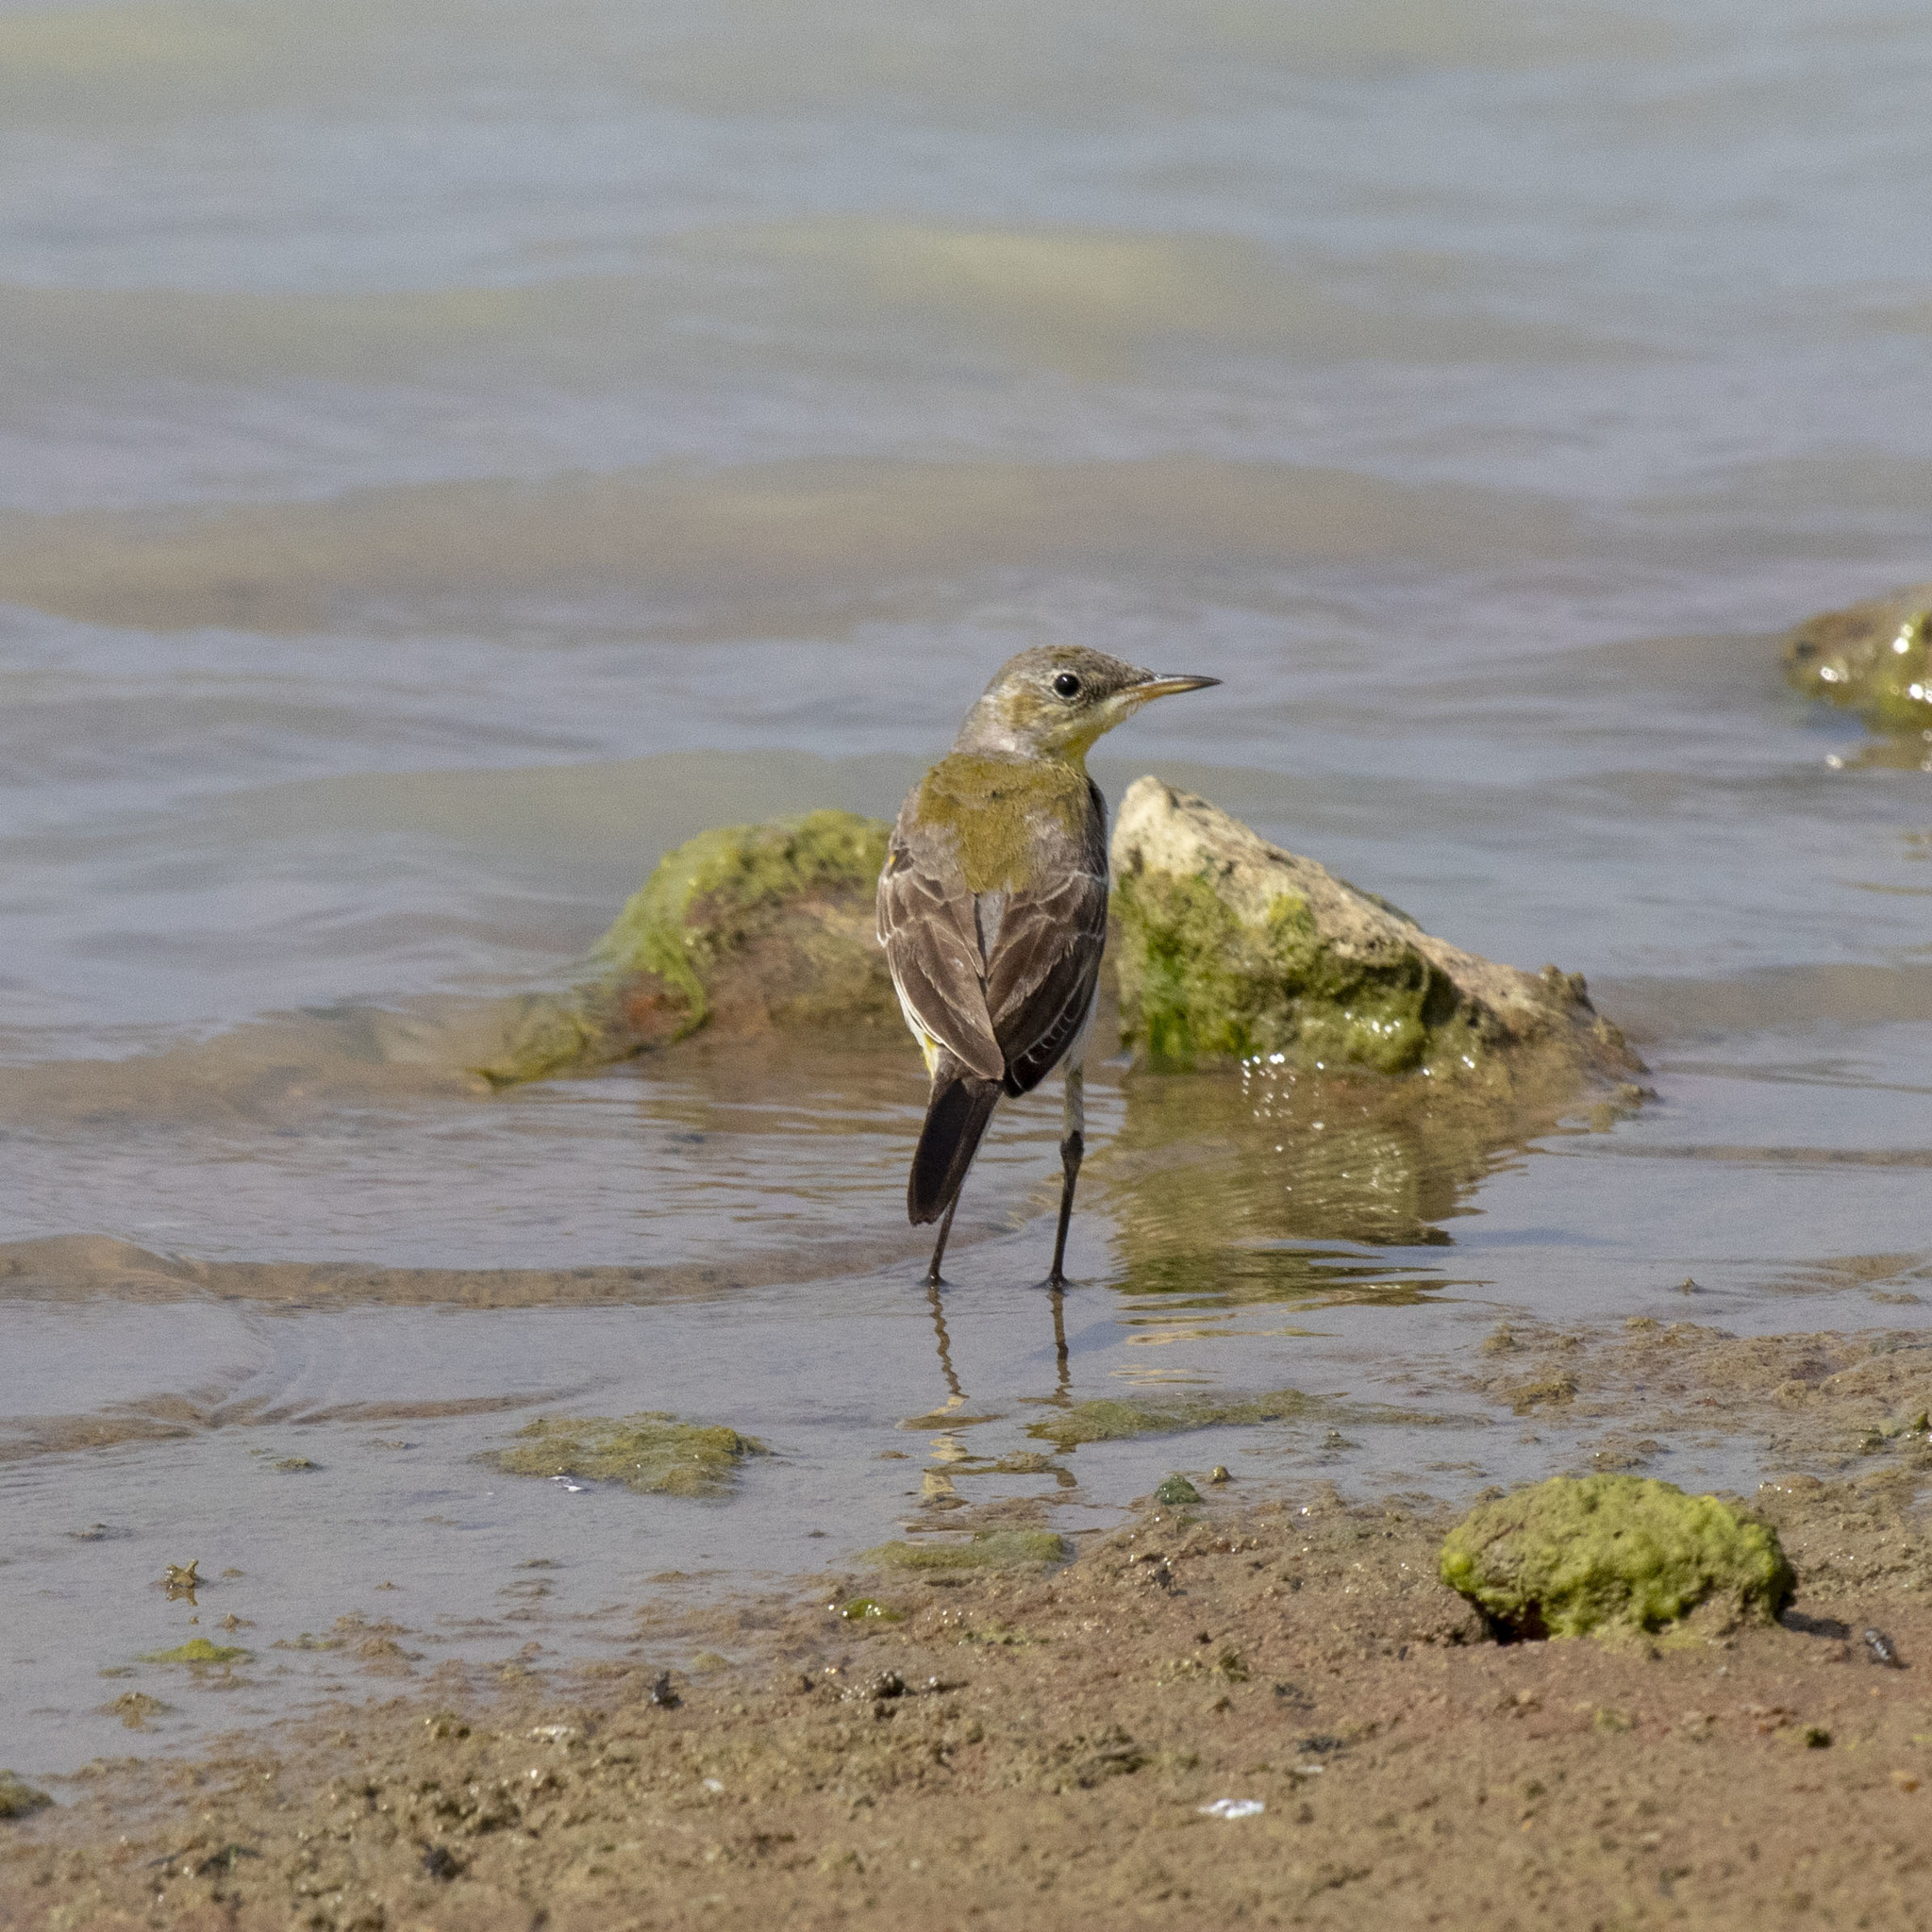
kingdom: Animalia
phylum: Chordata
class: Aves
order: Passeriformes
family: Motacillidae
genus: Motacilla
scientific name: Motacilla flava
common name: Western yellow wagtail
